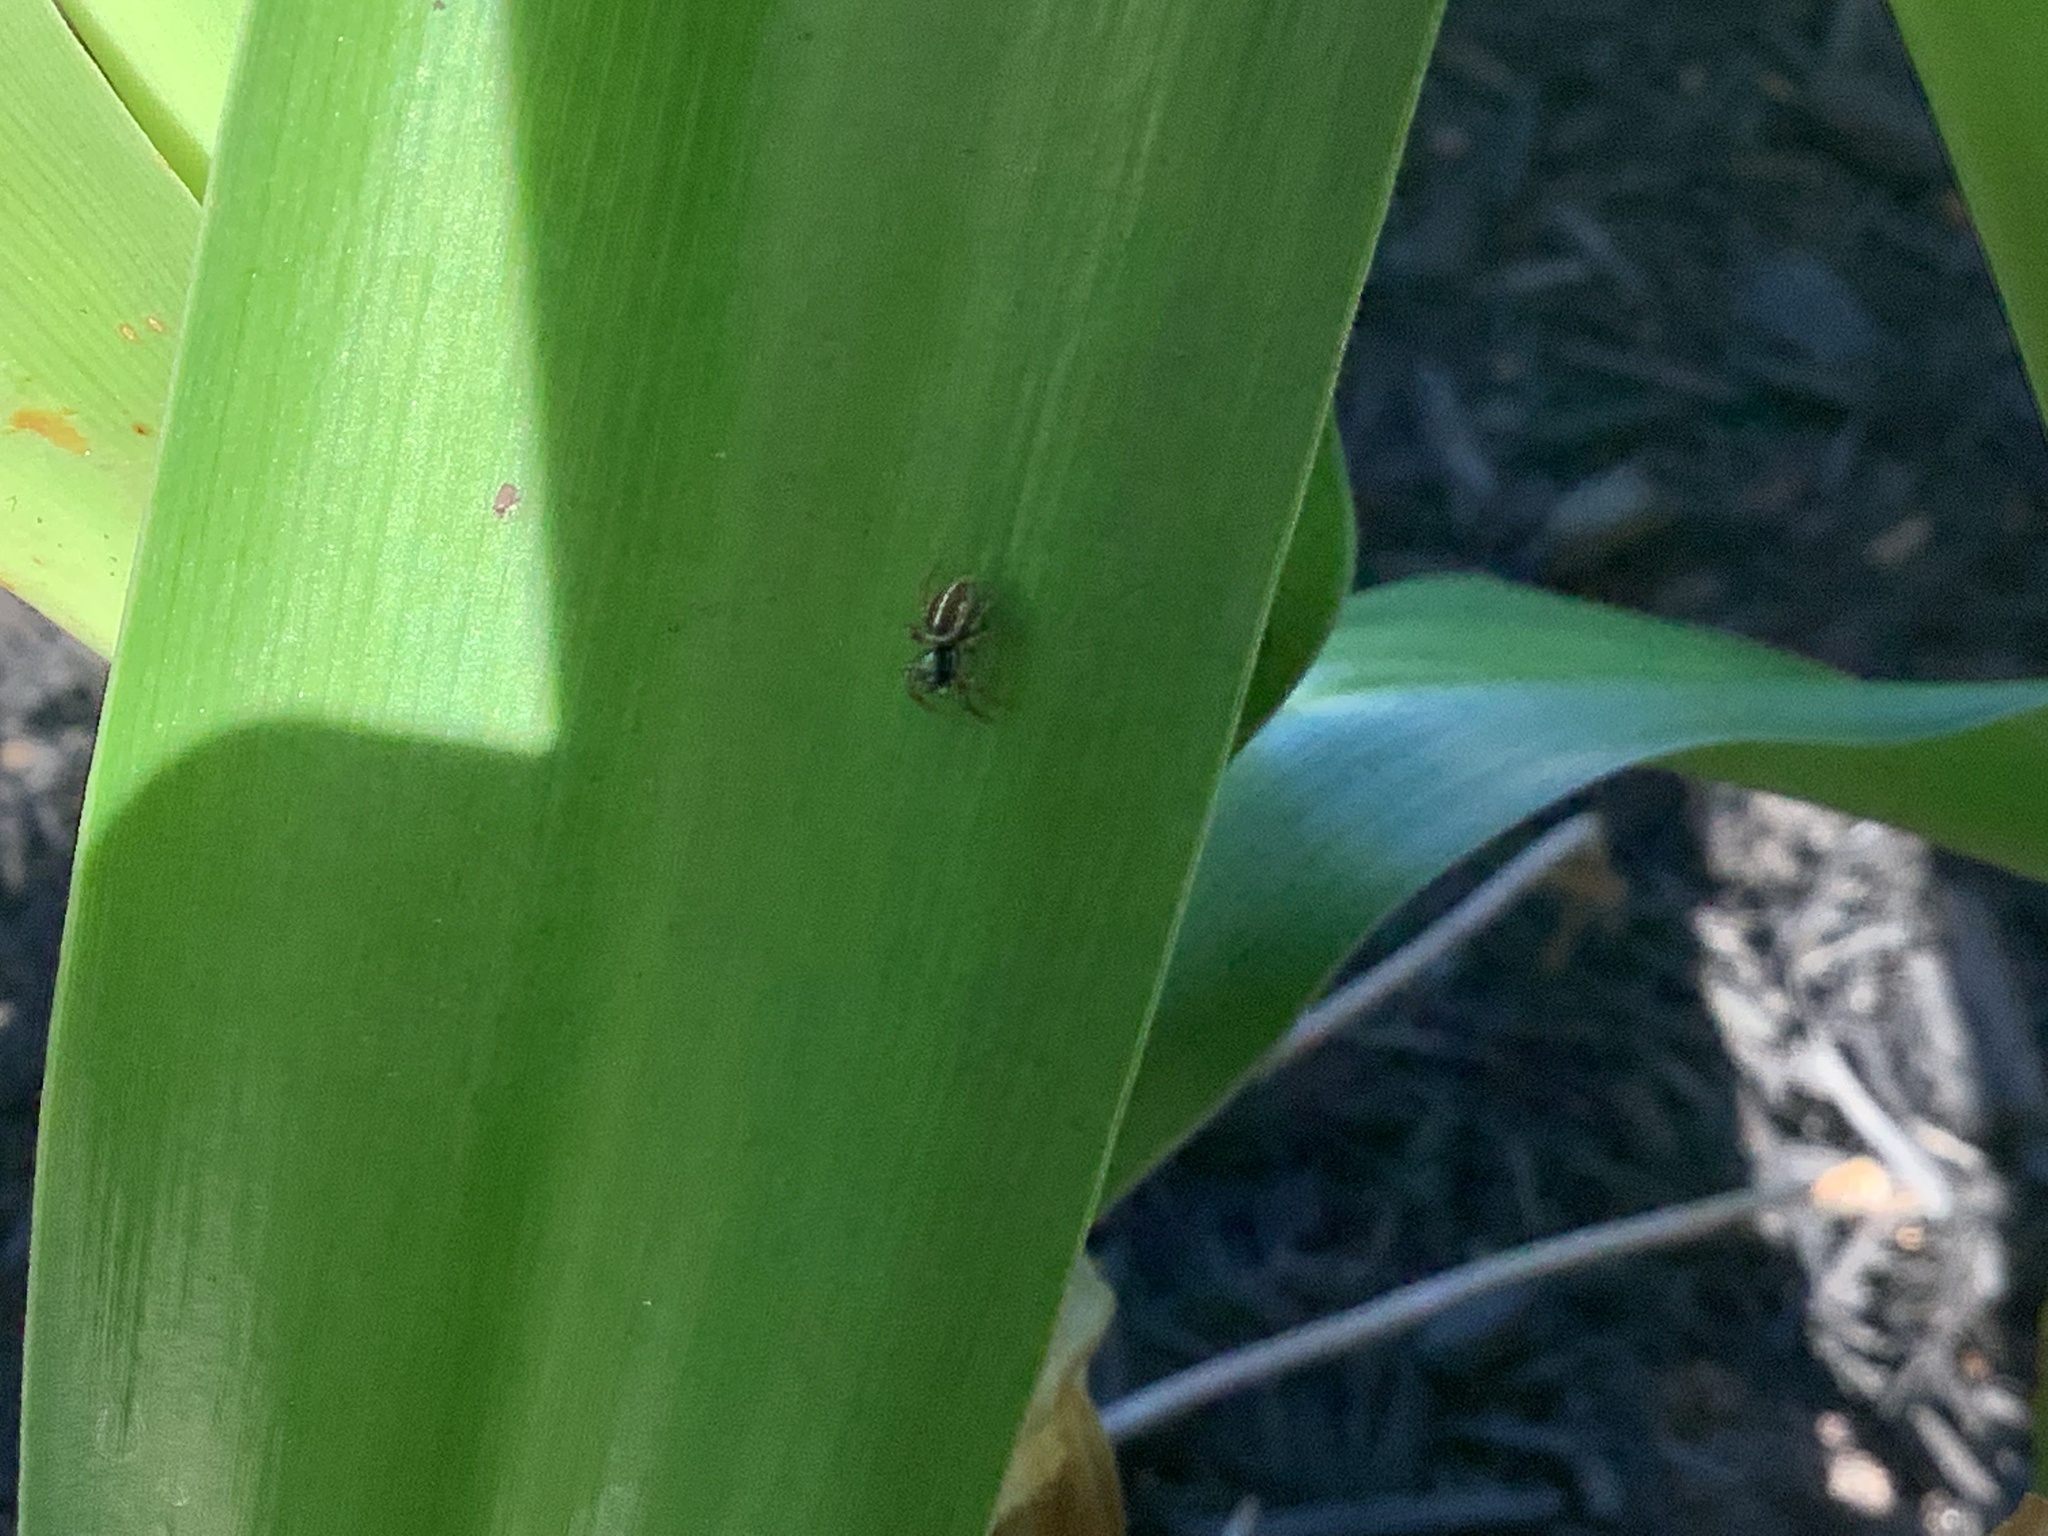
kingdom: Animalia
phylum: Arthropoda
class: Arachnida
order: Araneae
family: Salticidae
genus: Anasaitis
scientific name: Anasaitis canosa
